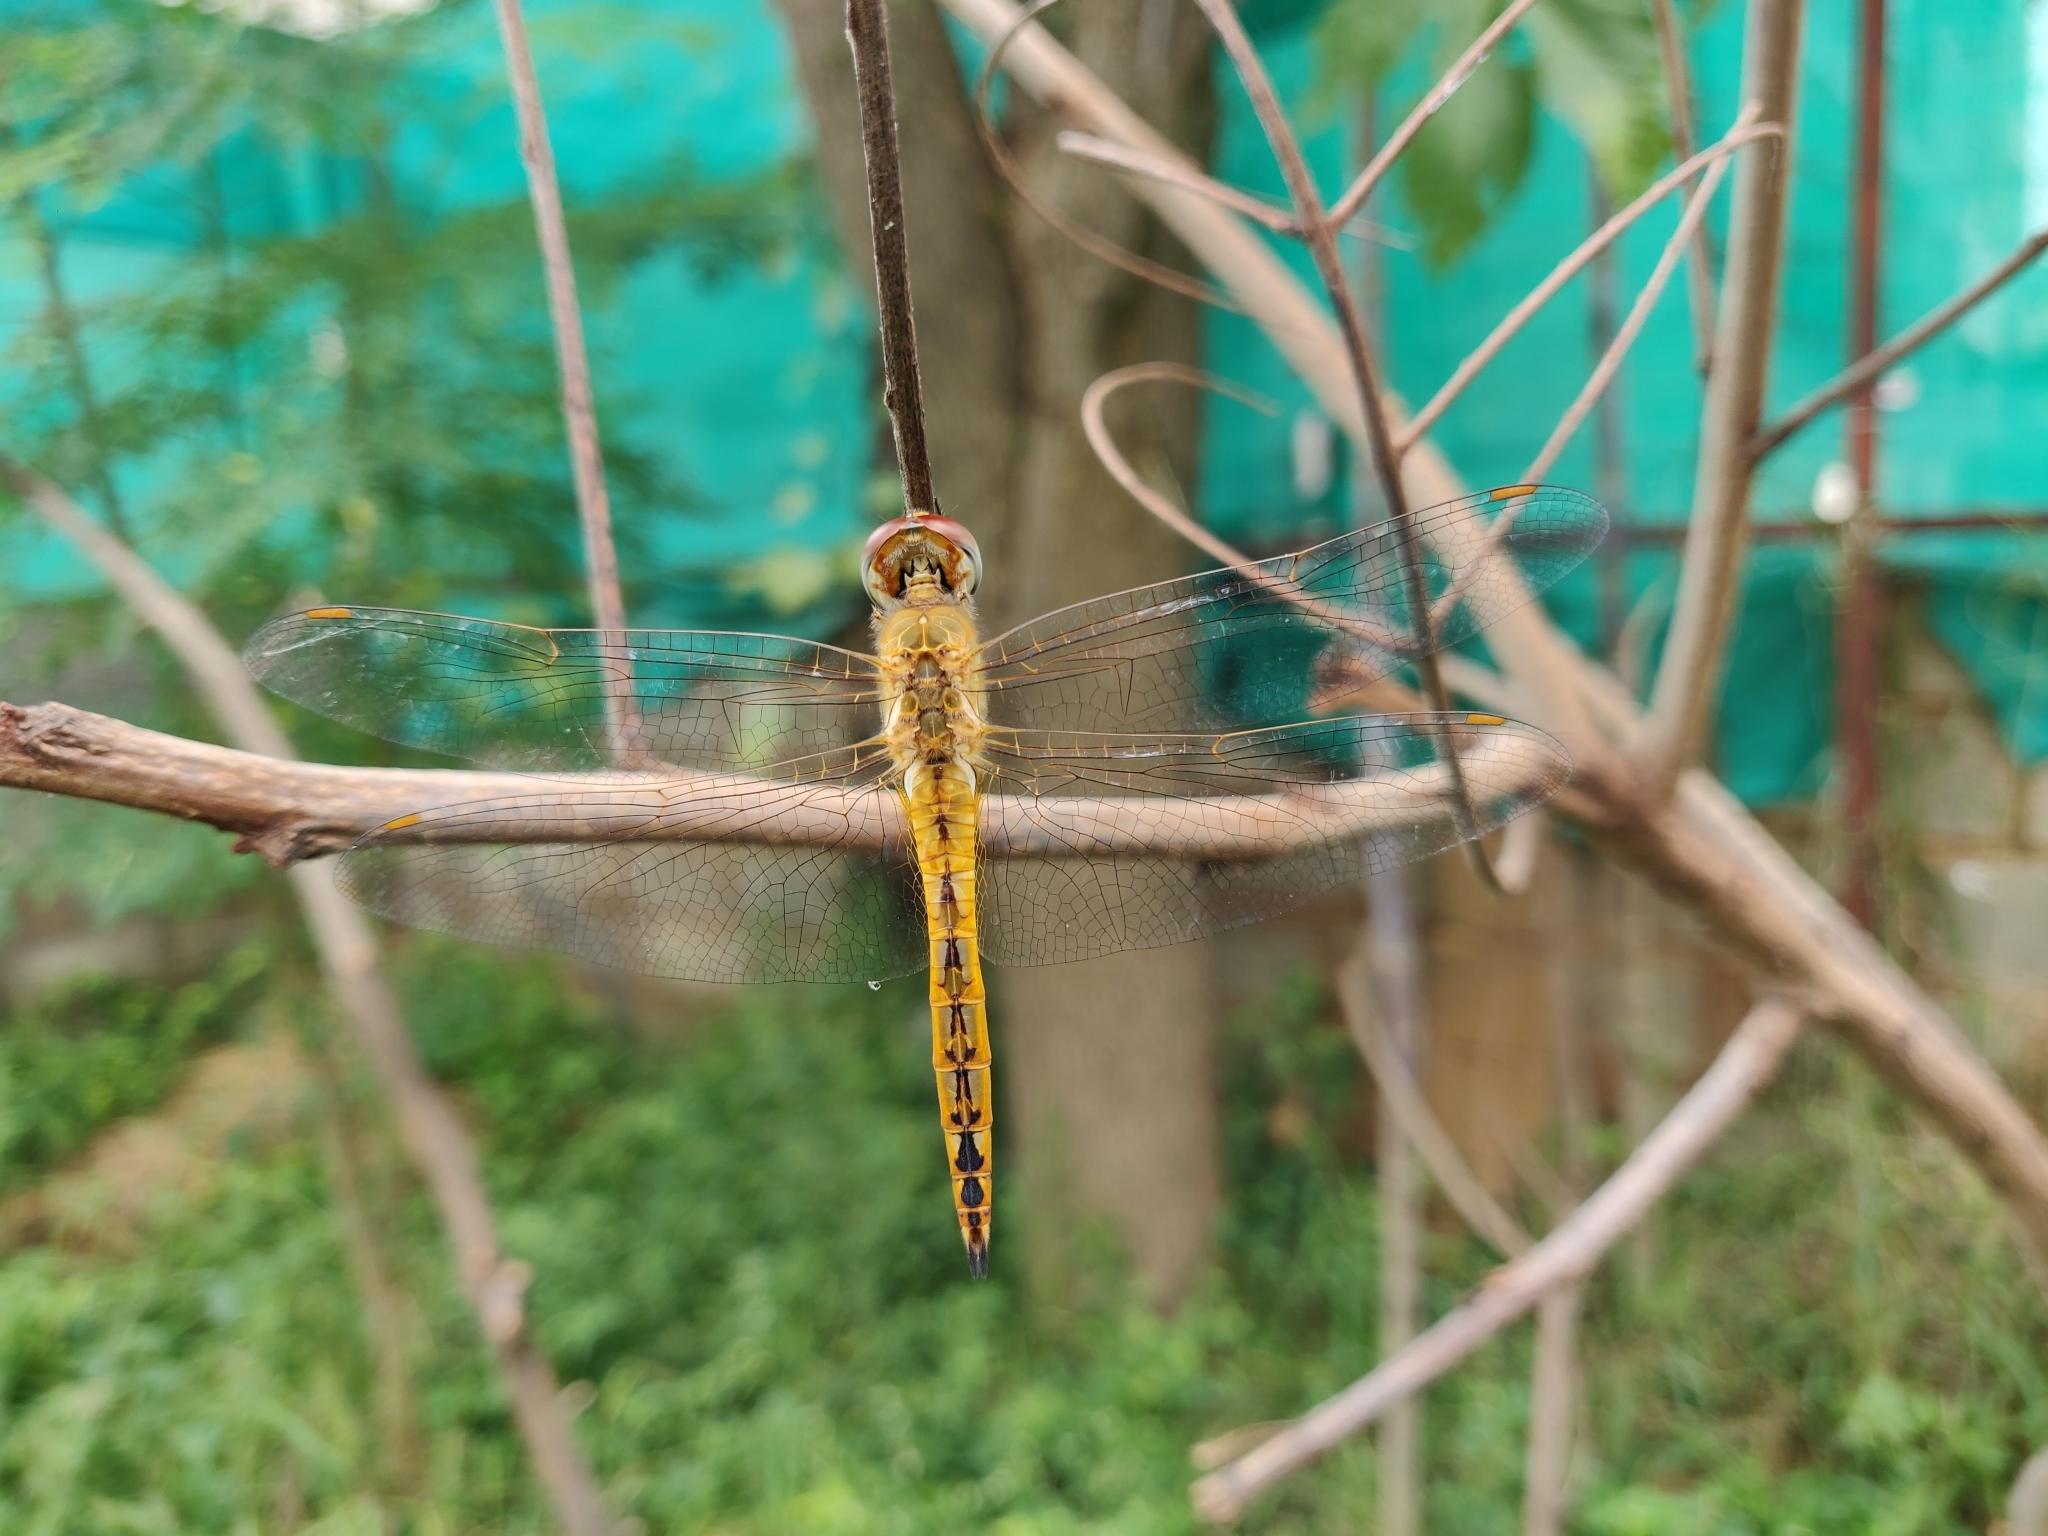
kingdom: Animalia
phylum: Arthropoda
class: Insecta
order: Odonata
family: Libellulidae
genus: Pantala
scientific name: Pantala flavescens
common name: Wandering glider
